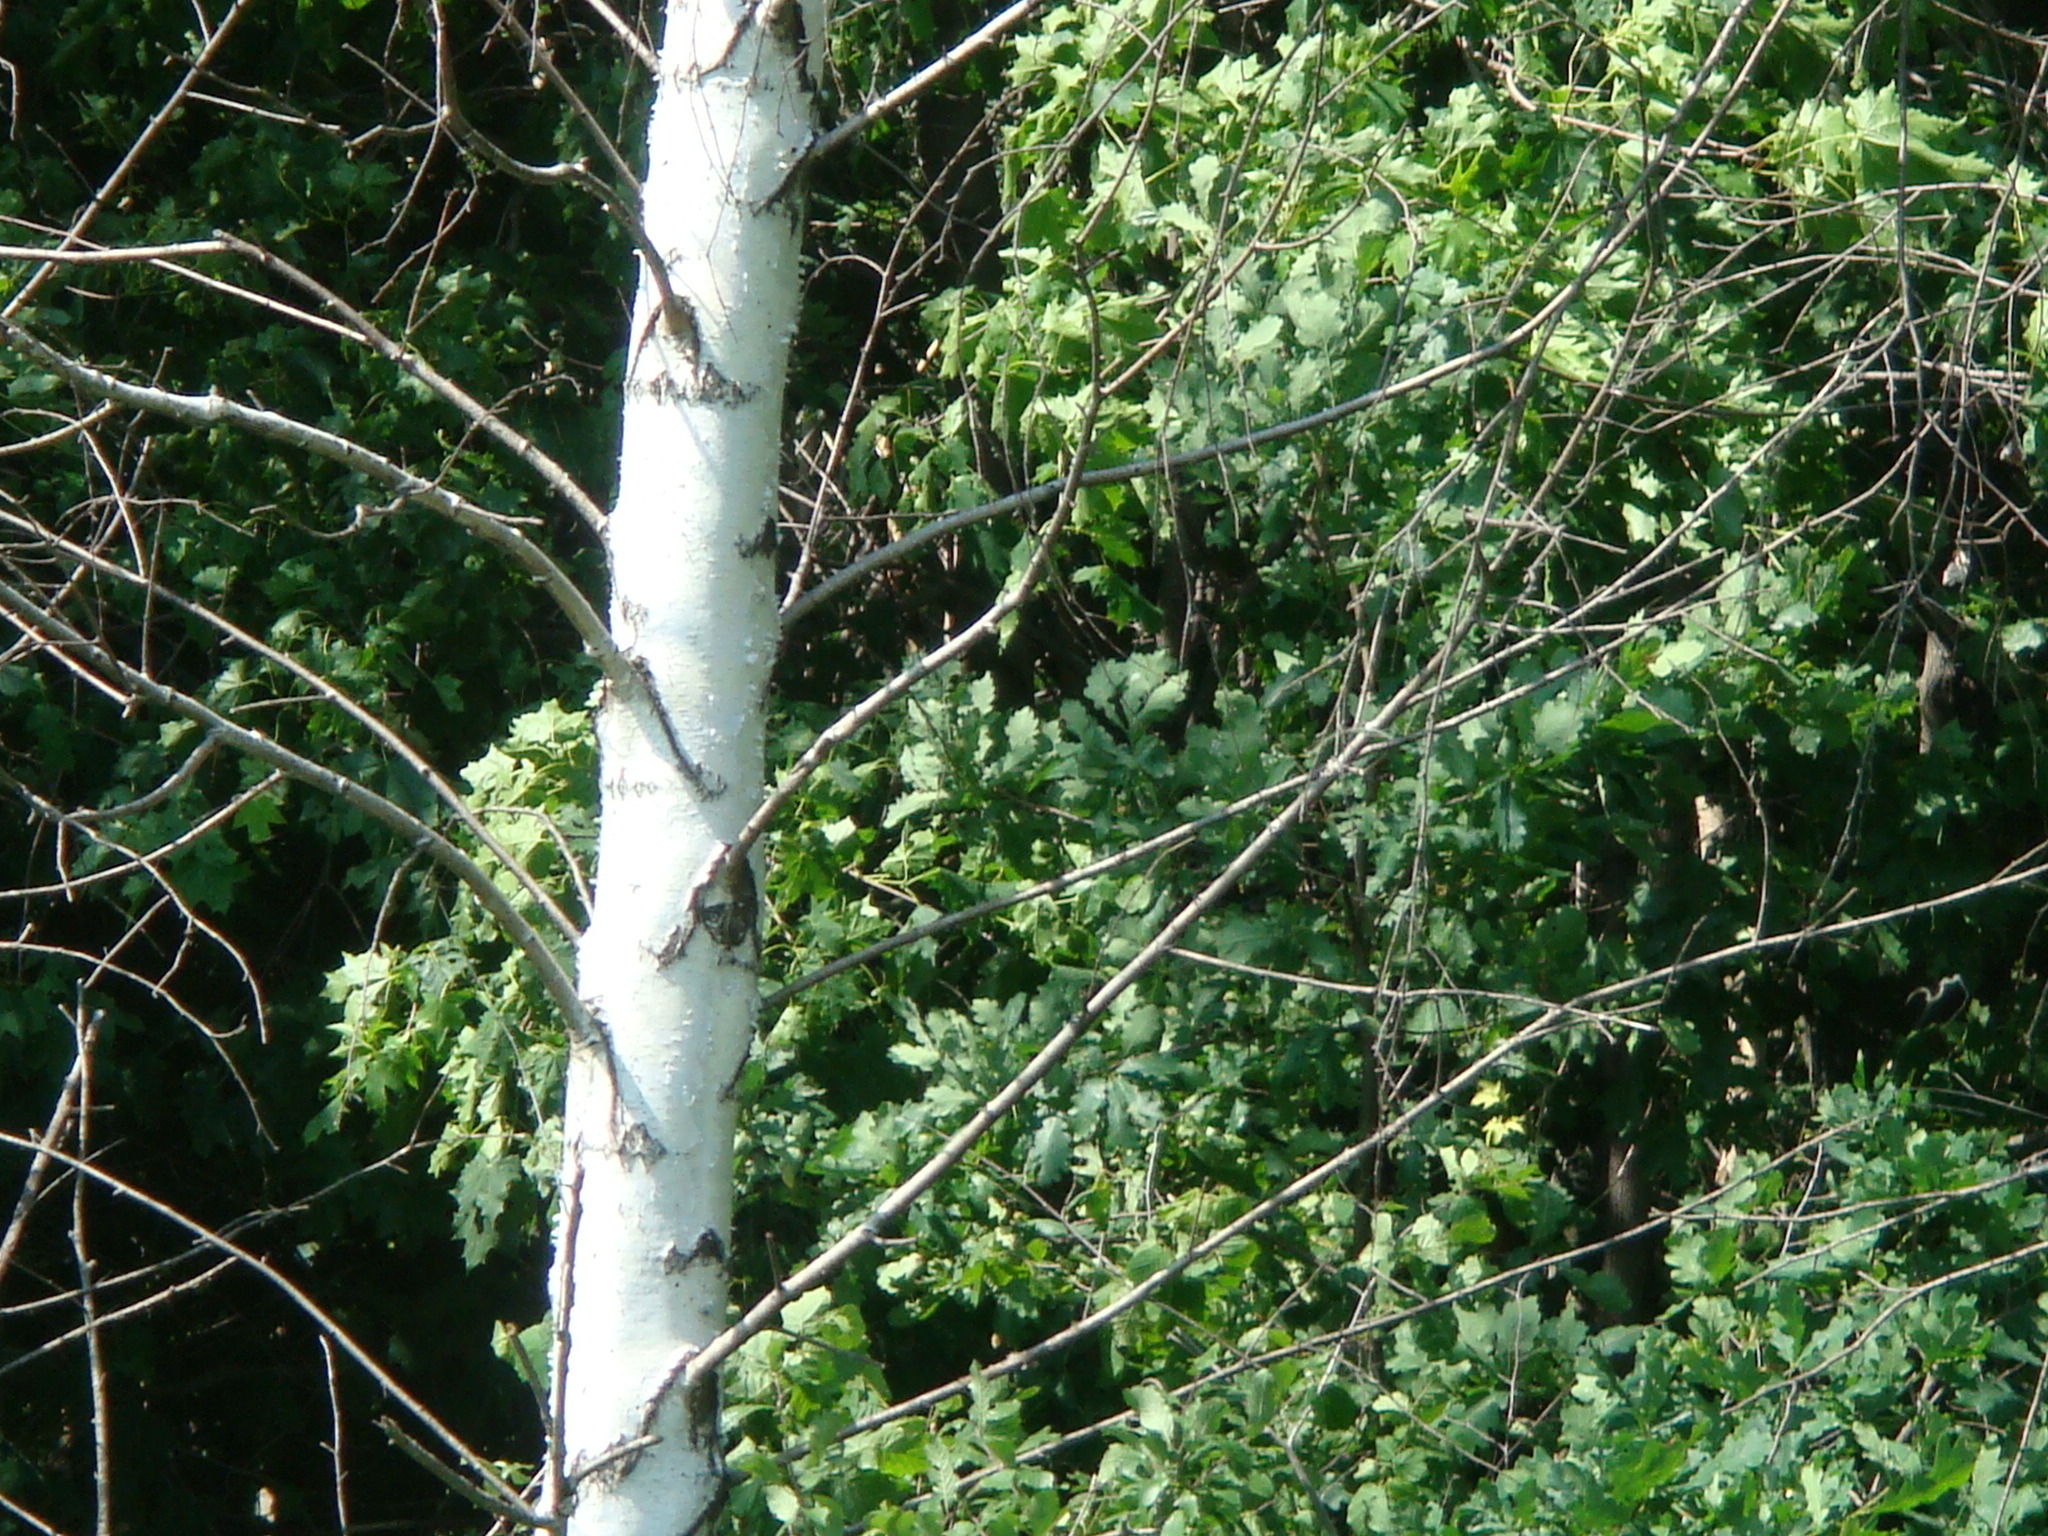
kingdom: Plantae
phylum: Tracheophyta
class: Magnoliopsida
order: Fagales
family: Betulaceae
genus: Betula
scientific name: Betula pendula
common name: Silver birch
